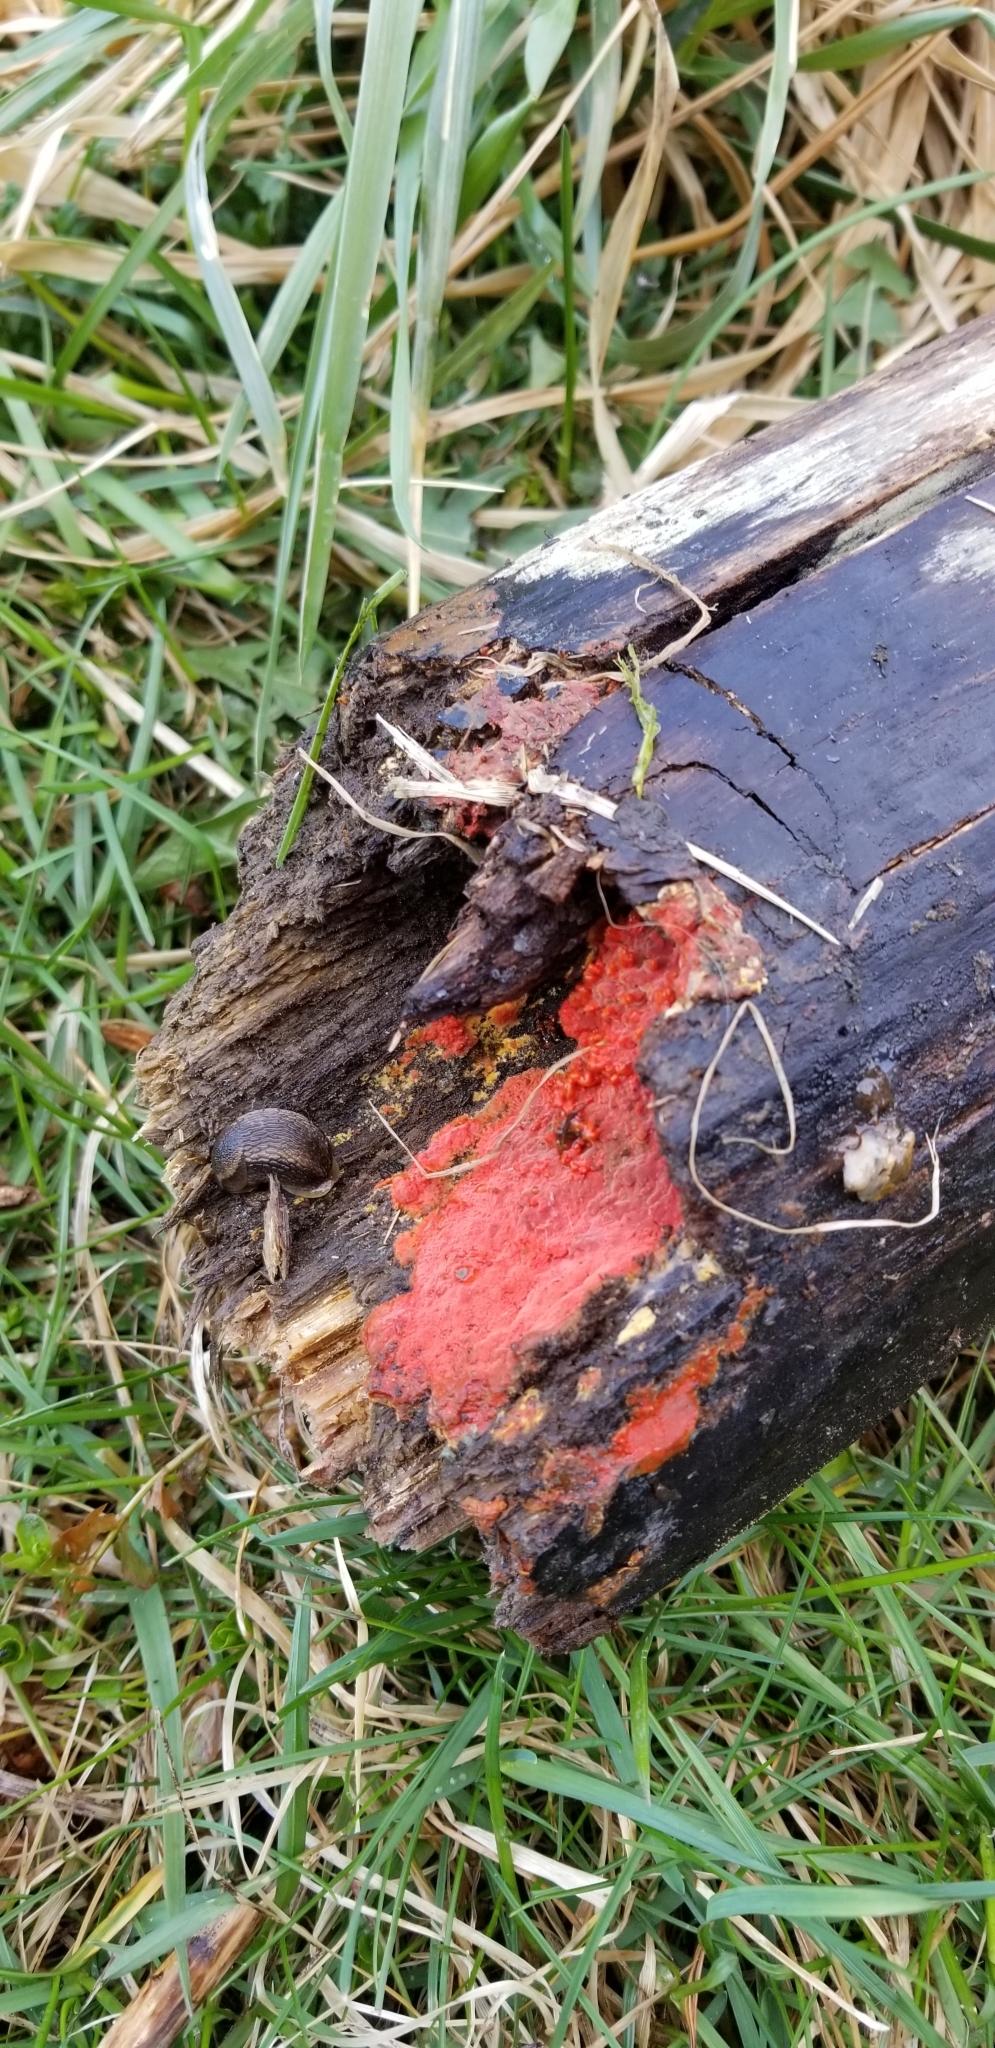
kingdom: Fungi
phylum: Basidiomycota
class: Tremellomycetes
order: Cystofilobasidiales
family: Cystofilobasidiaceae
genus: Cystofilobasidium
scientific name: Cystofilobasidium macerans
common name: Sap yeast
